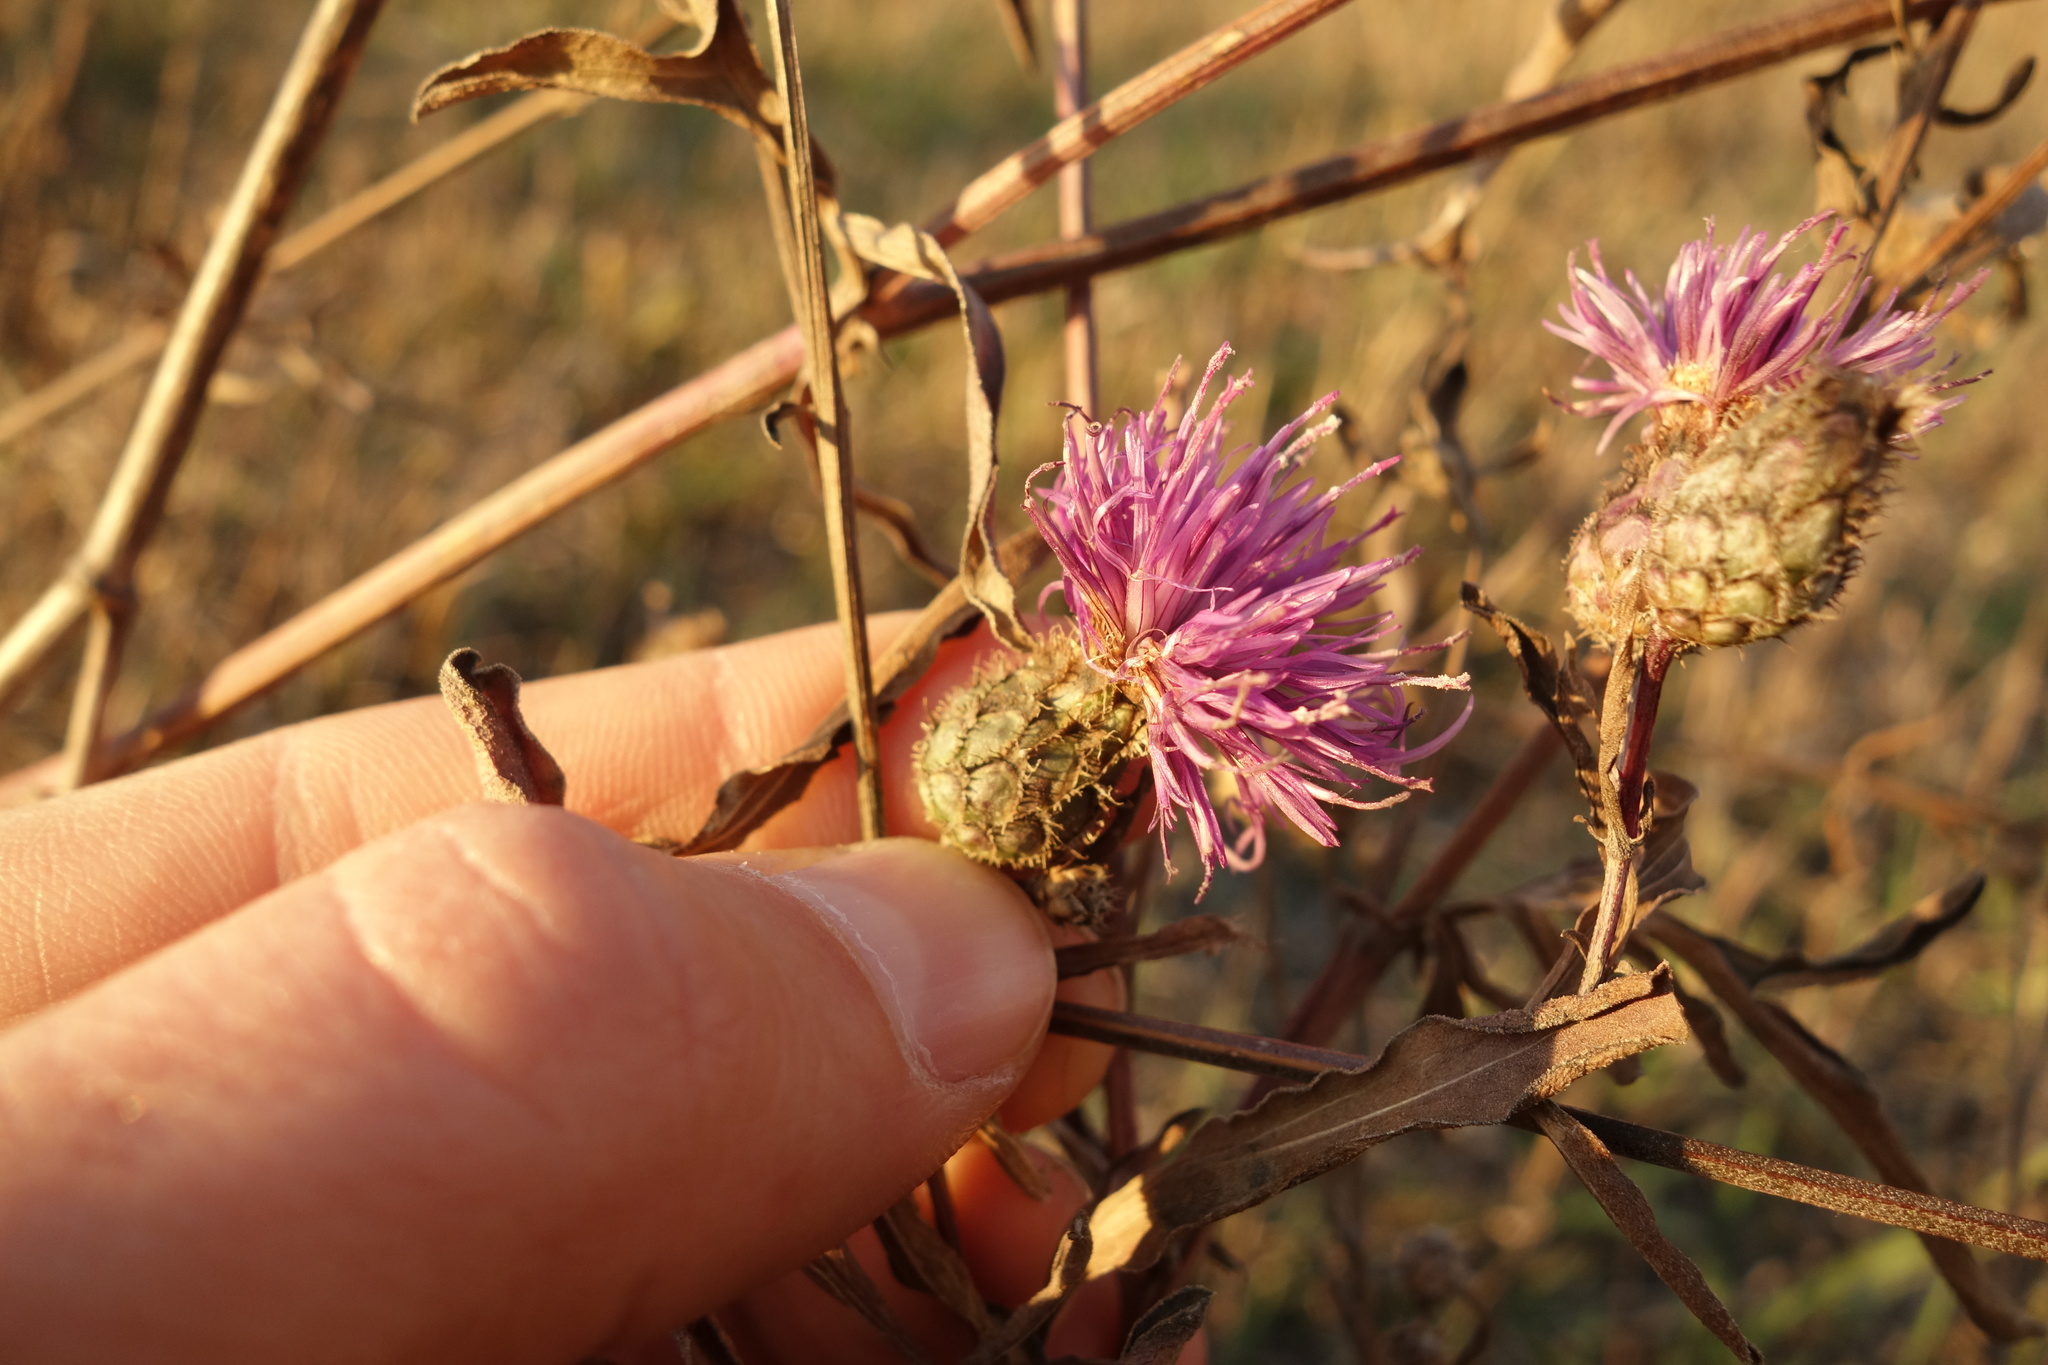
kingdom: Plantae
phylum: Tracheophyta
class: Magnoliopsida
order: Asterales
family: Asteraceae
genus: Centaurea
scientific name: Centaurea scabiosa
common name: Greater knapweed
